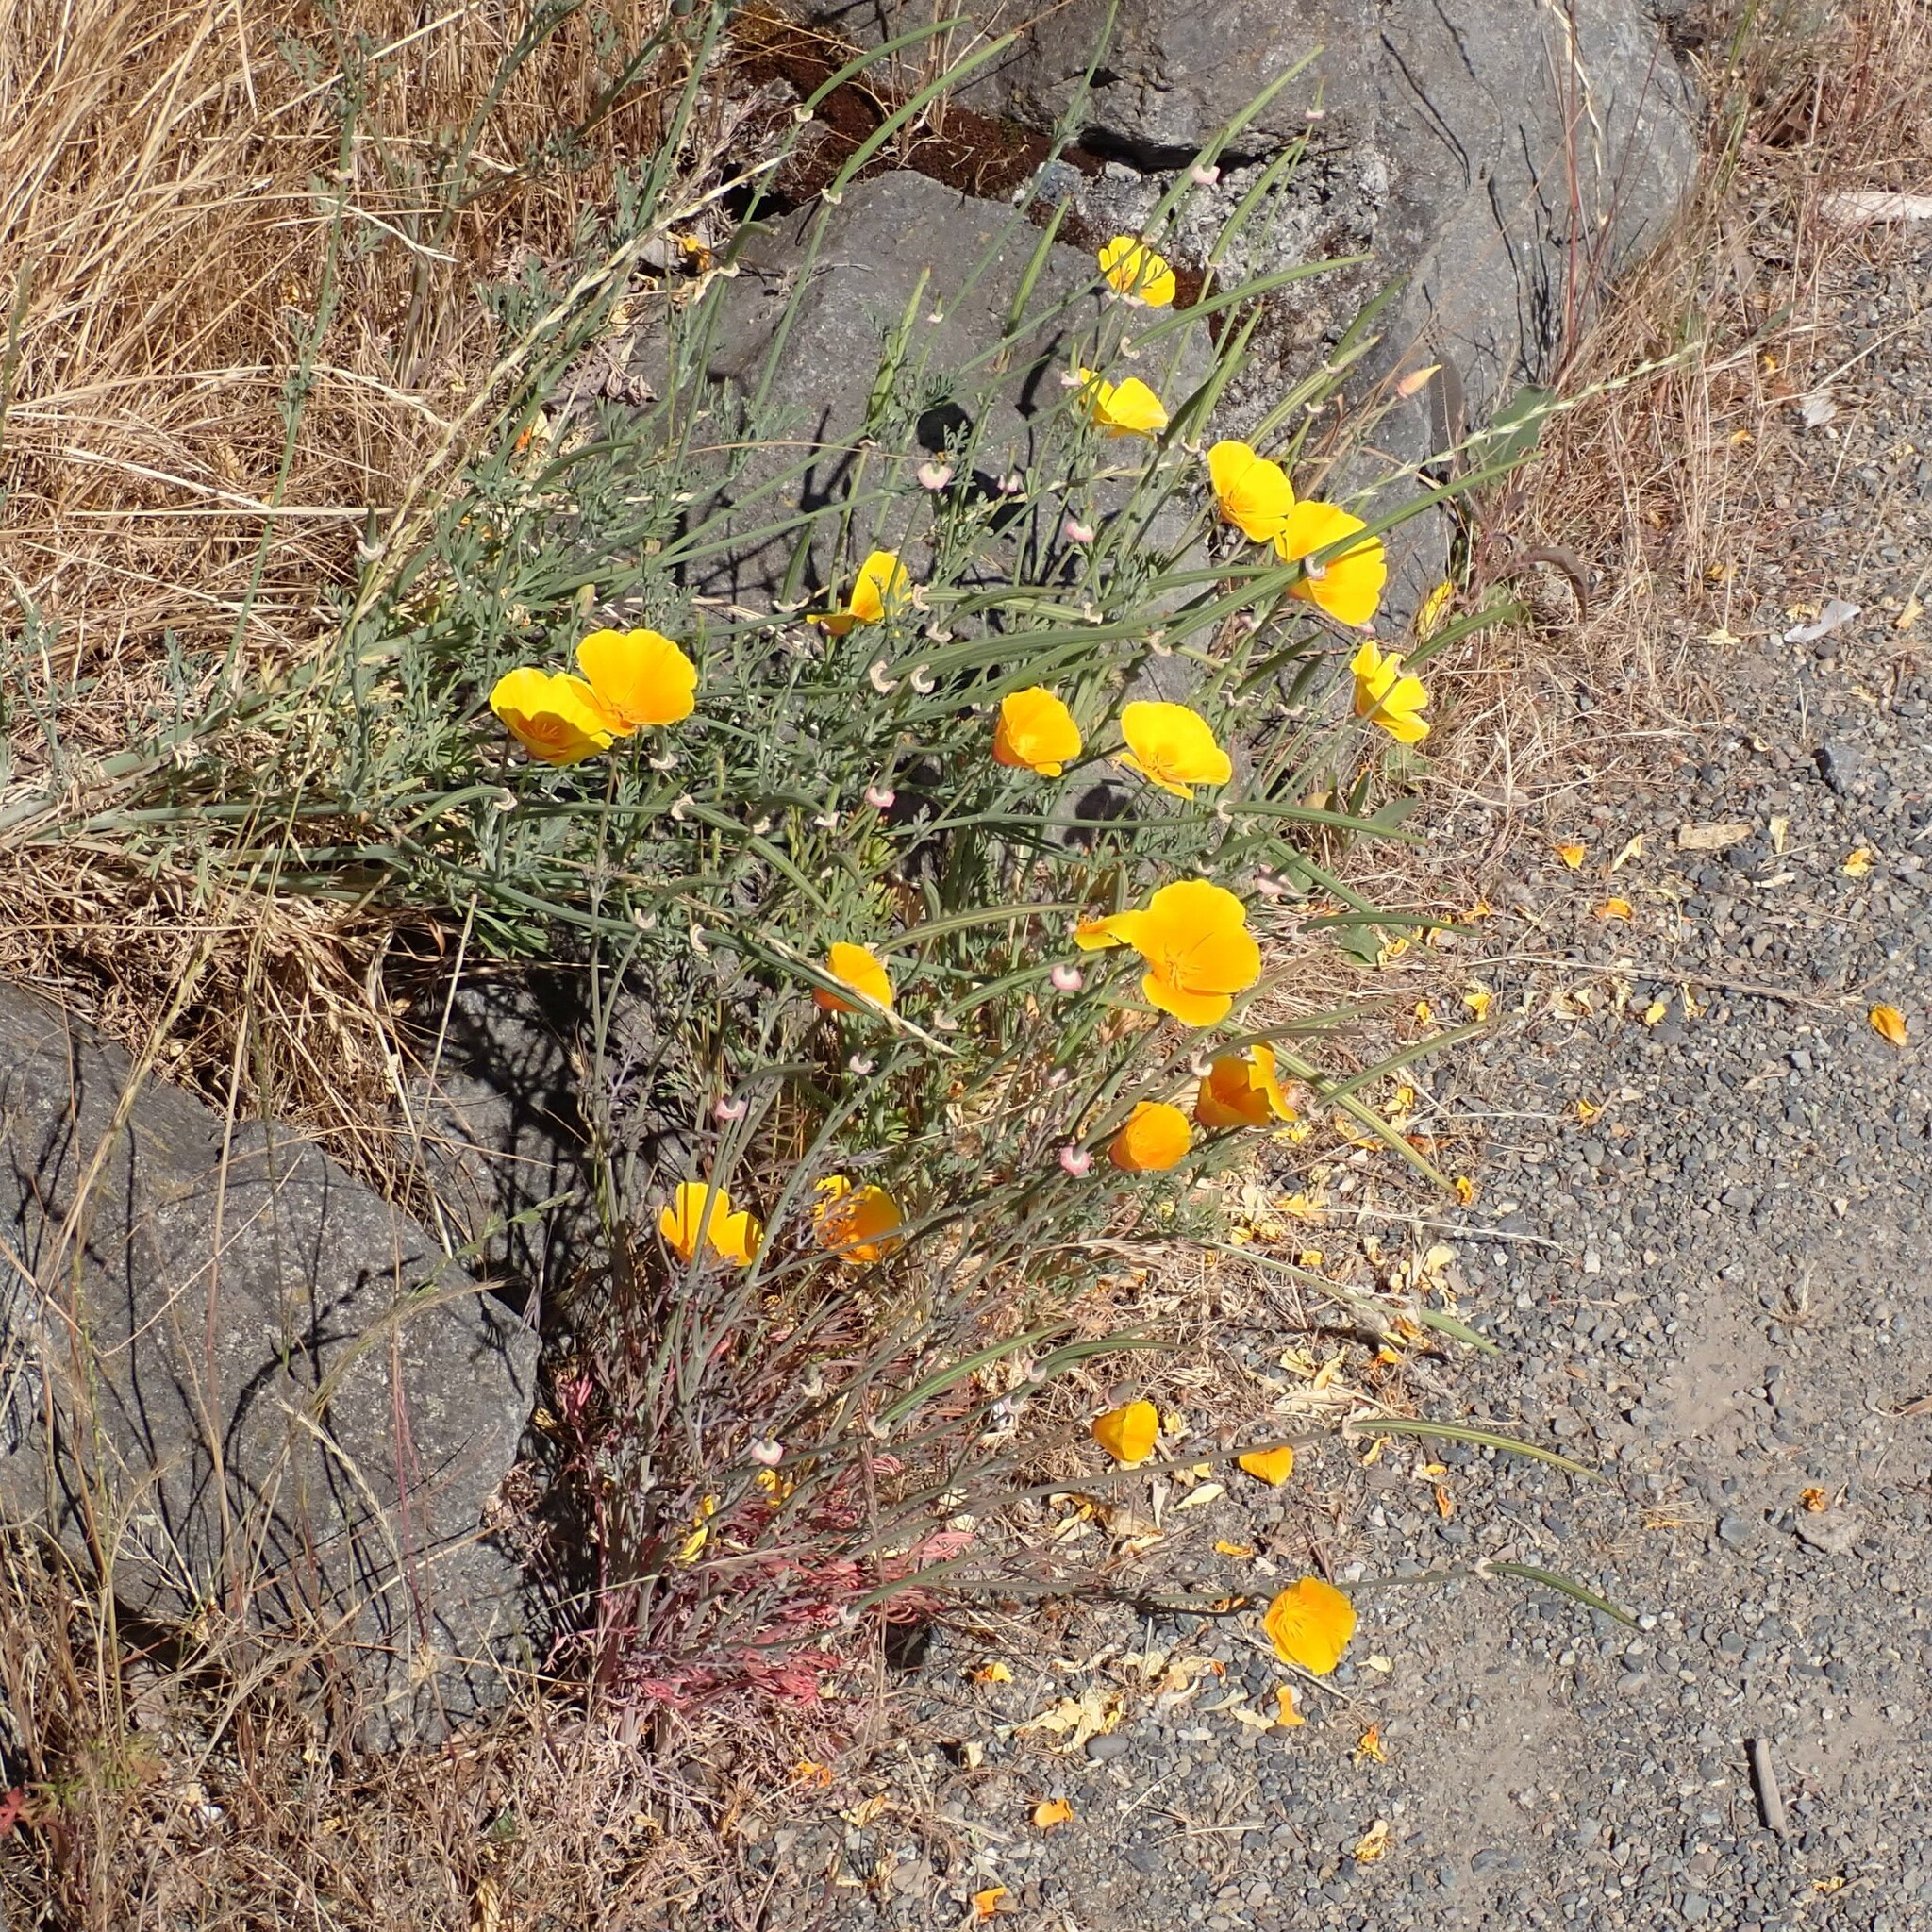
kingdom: Plantae
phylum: Tracheophyta
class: Magnoliopsida
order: Ranunculales
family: Papaveraceae
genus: Eschscholzia
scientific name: Eschscholzia californica
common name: California poppy
